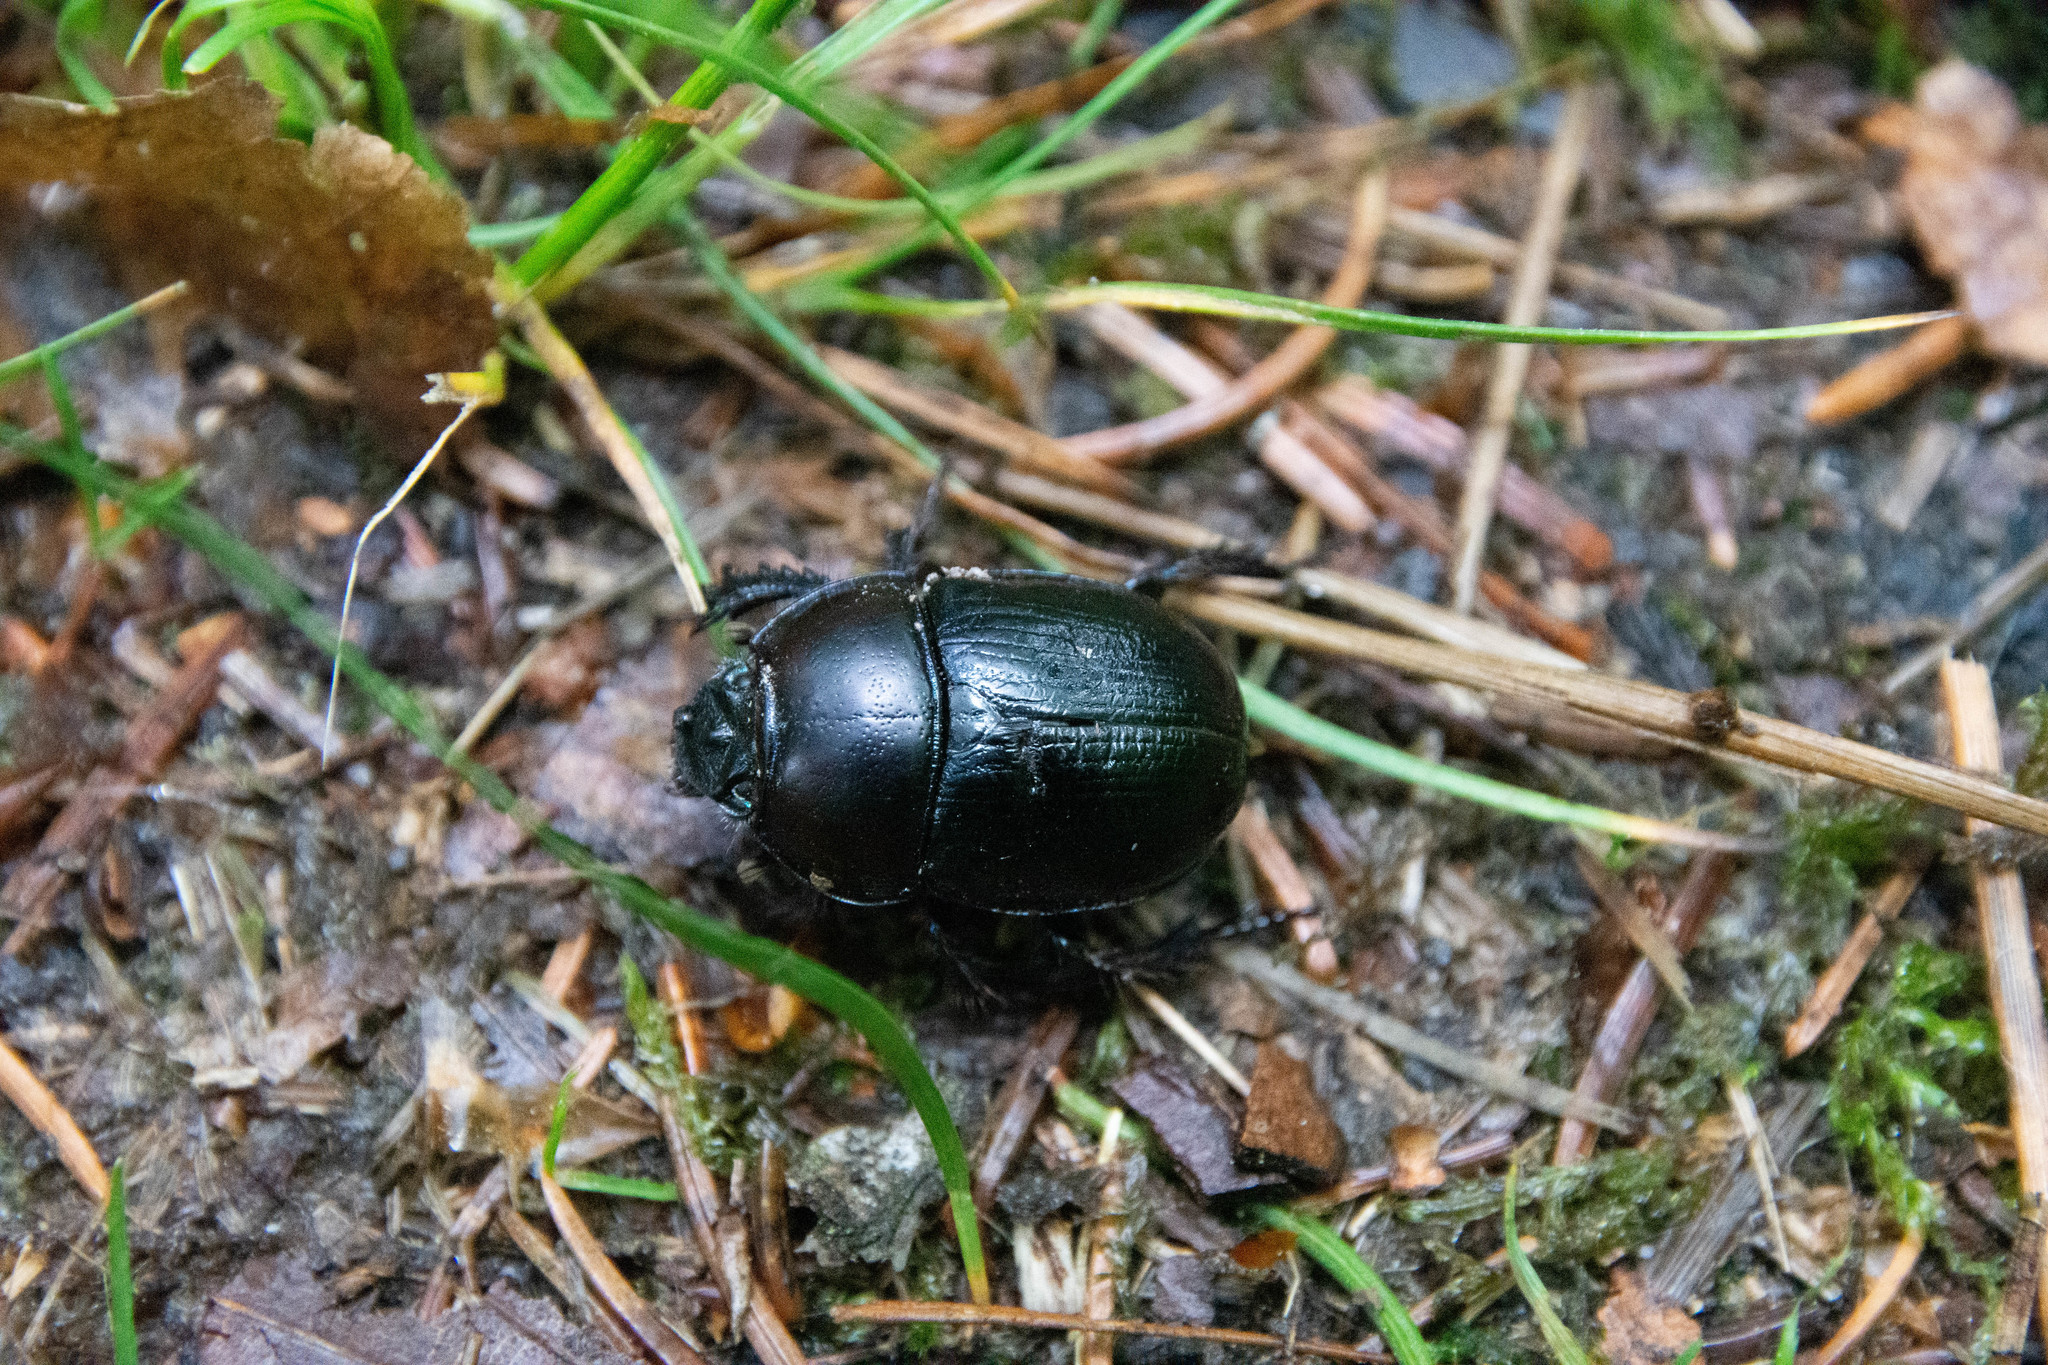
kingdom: Animalia
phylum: Arthropoda
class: Insecta
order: Coleoptera
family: Geotrupidae
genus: Anoplotrupes
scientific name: Anoplotrupes stercorosus
